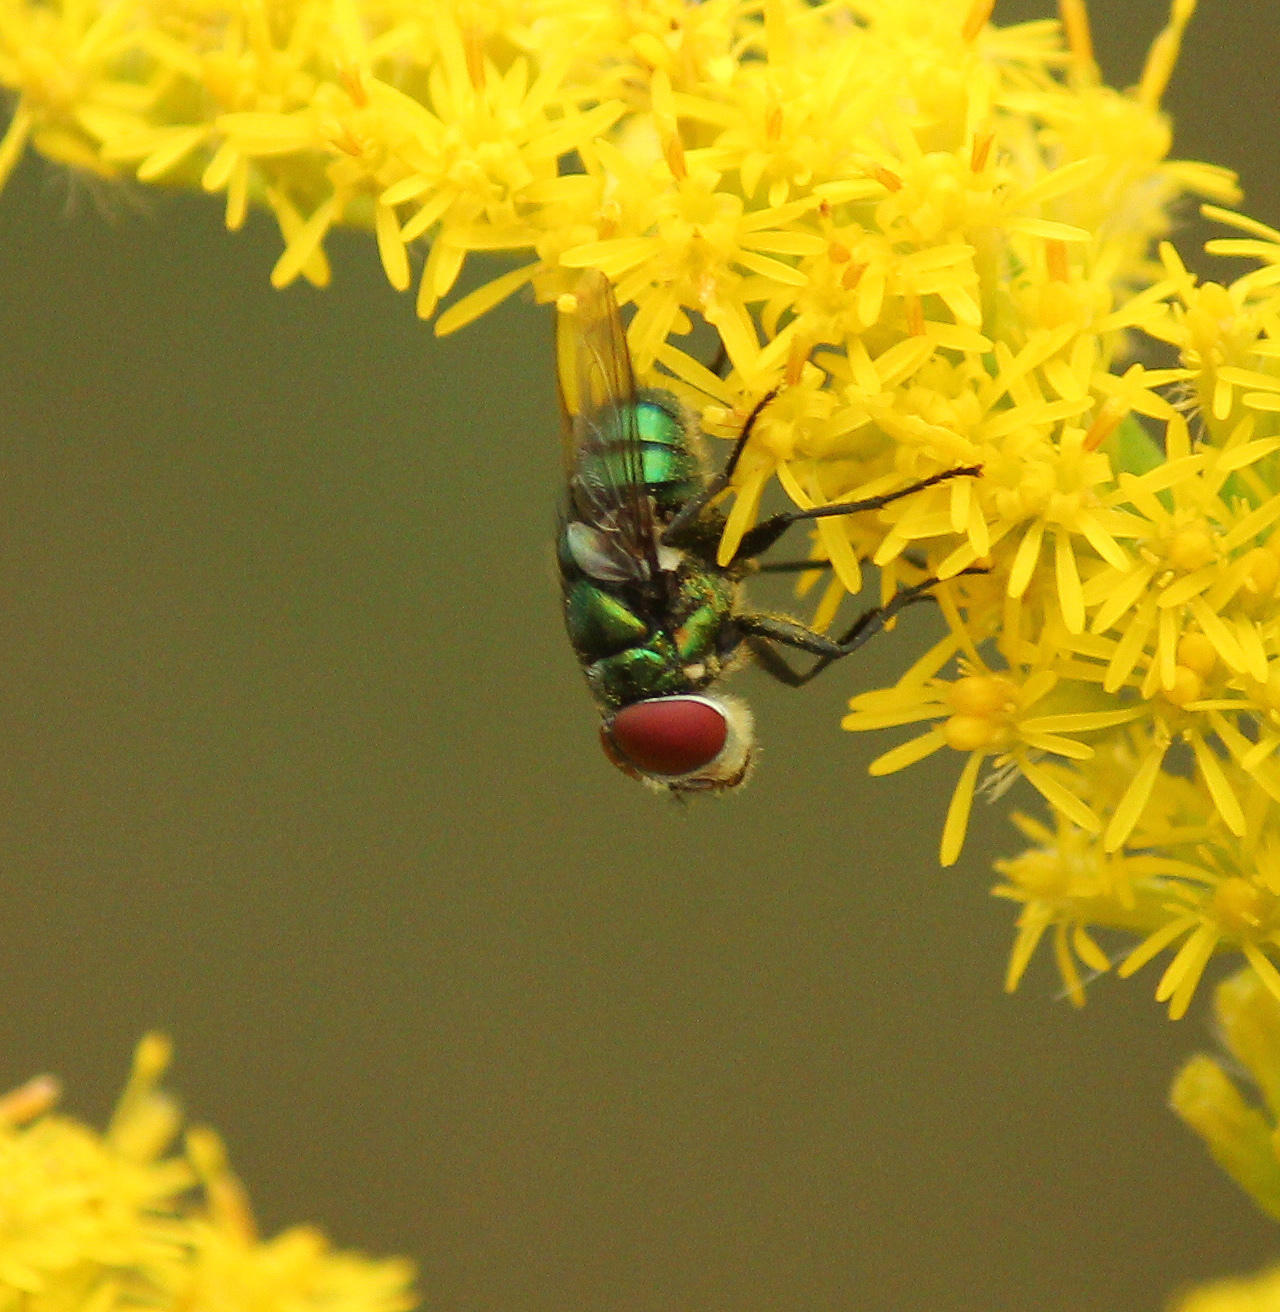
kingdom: Animalia
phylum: Arthropoda
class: Insecta
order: Diptera
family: Calliphoridae
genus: Chrysomya
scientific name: Chrysomya rufifacies
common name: Blow fly
